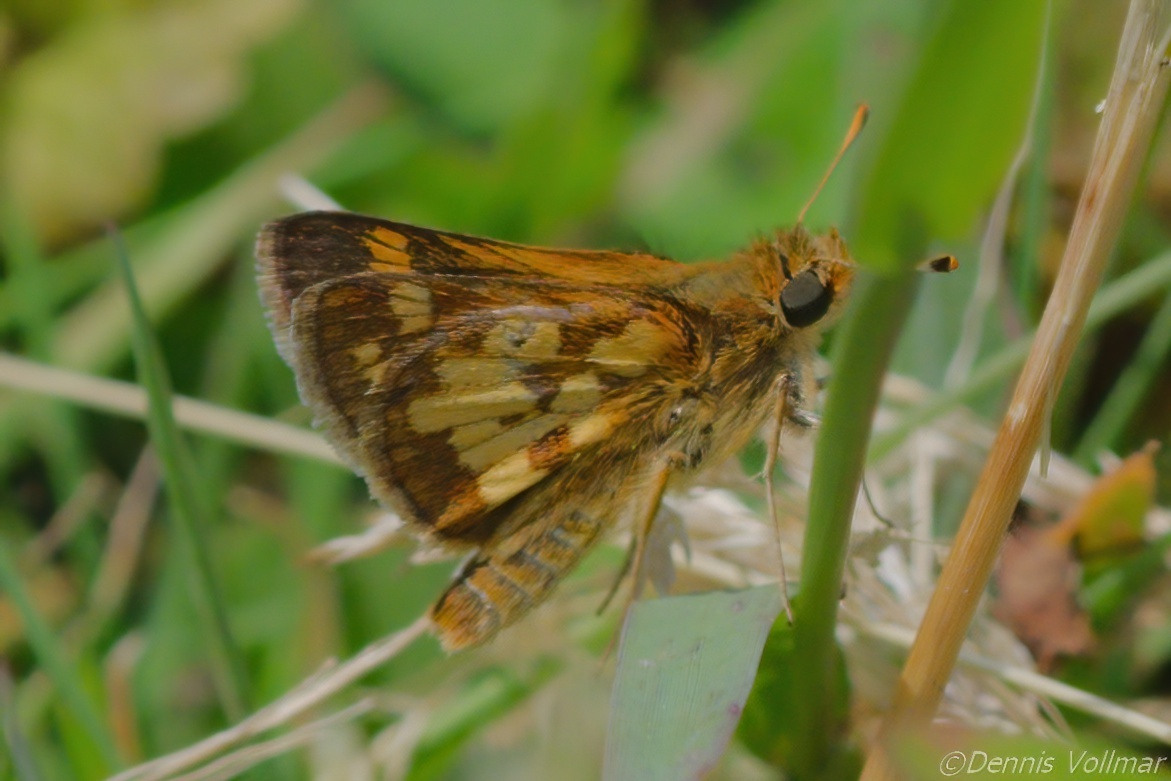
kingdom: Animalia
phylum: Arthropoda
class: Insecta
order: Lepidoptera
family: Hesperiidae
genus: Polites
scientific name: Polites coras
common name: Peck's skipper
